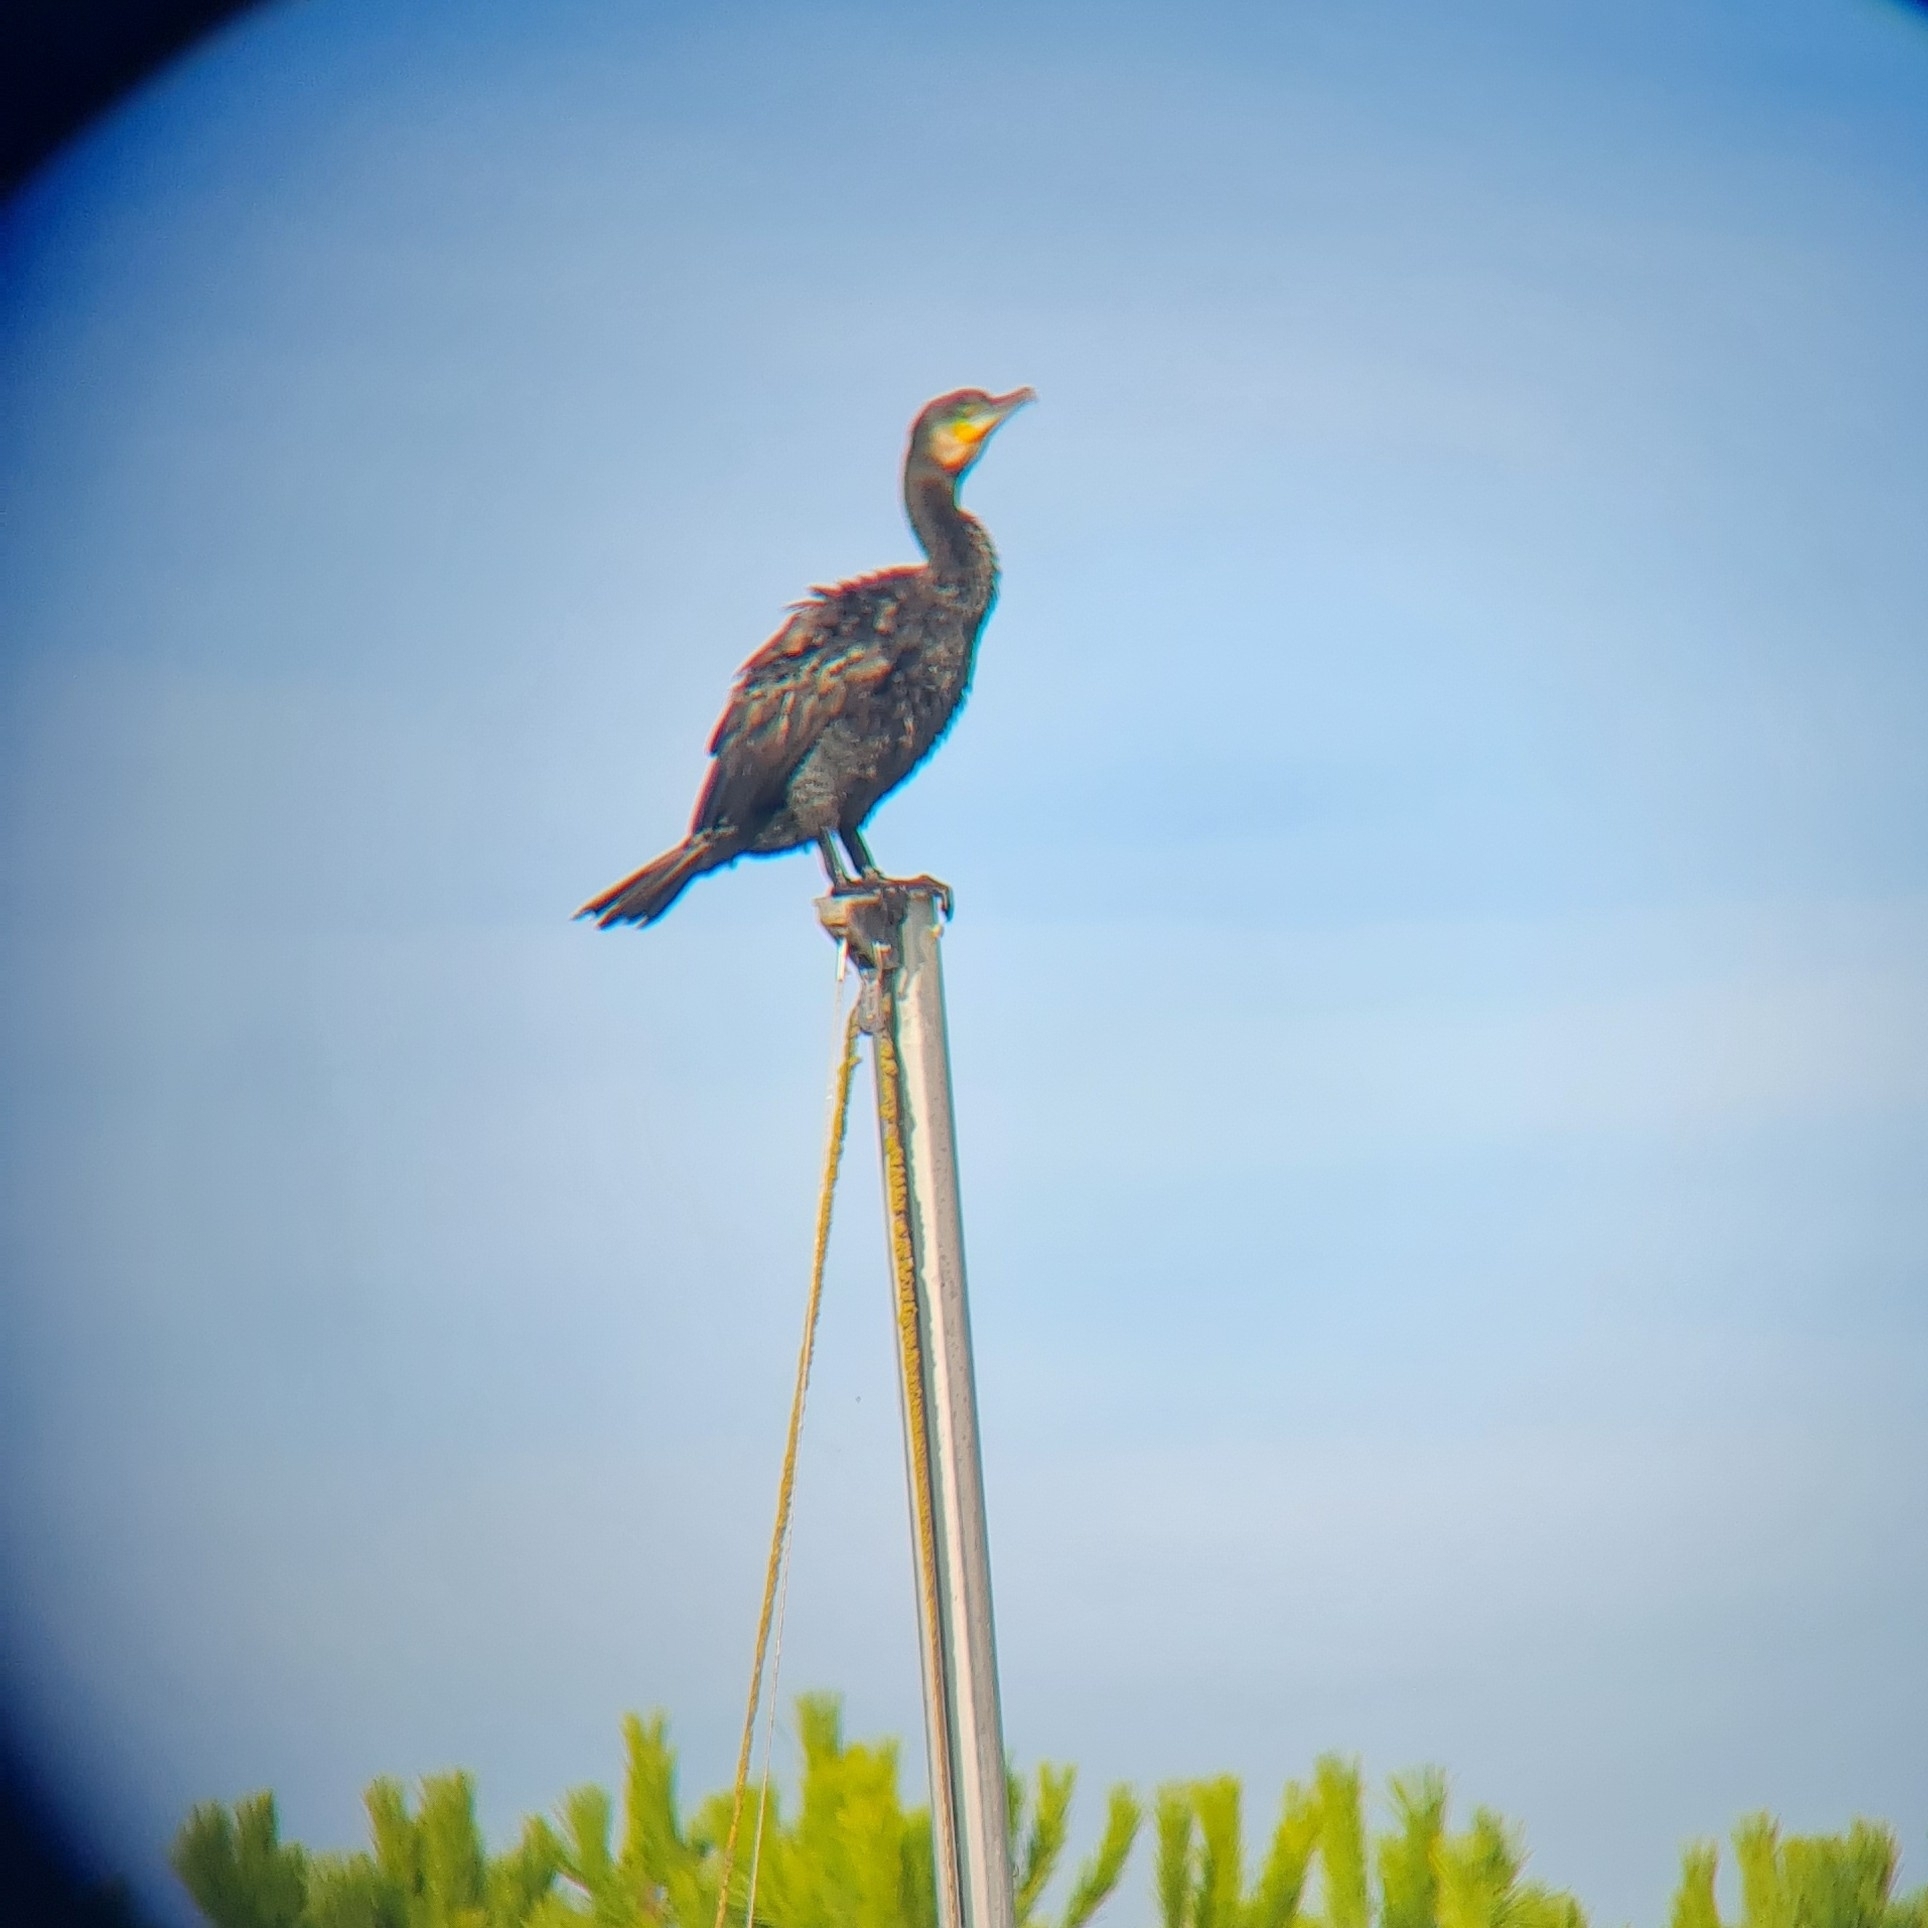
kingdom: Animalia
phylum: Chordata
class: Aves
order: Suliformes
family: Phalacrocoracidae
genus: Phalacrocorax
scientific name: Phalacrocorax carbo
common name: Great cormorant
